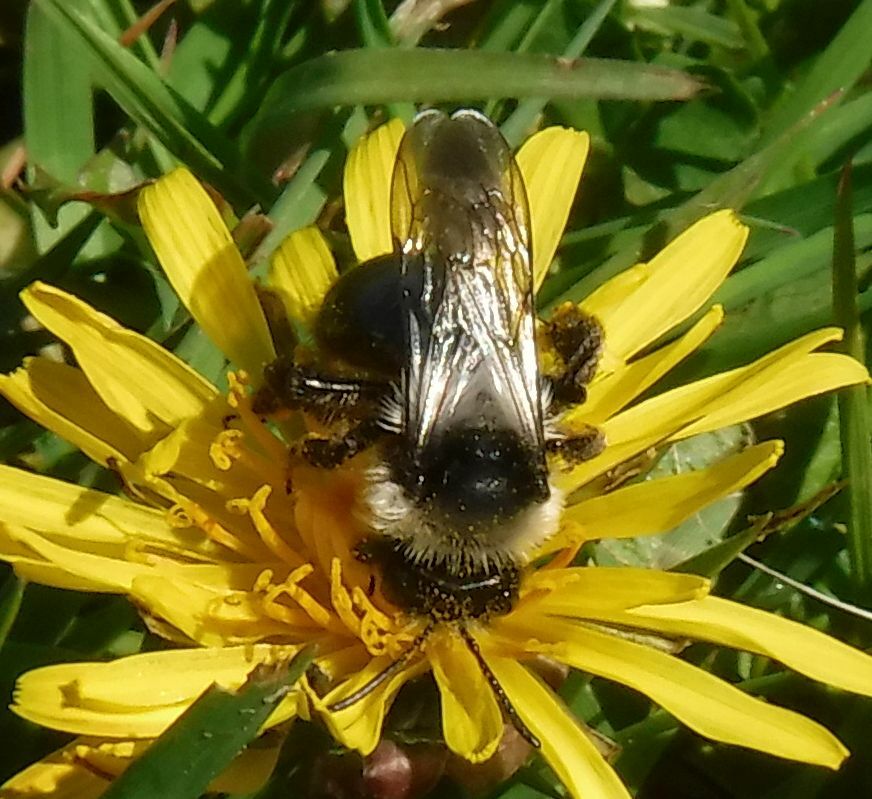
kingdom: Animalia
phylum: Arthropoda
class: Insecta
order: Hymenoptera
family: Andrenidae
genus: Andrena
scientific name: Andrena cineraria
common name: Ashy mining bee
